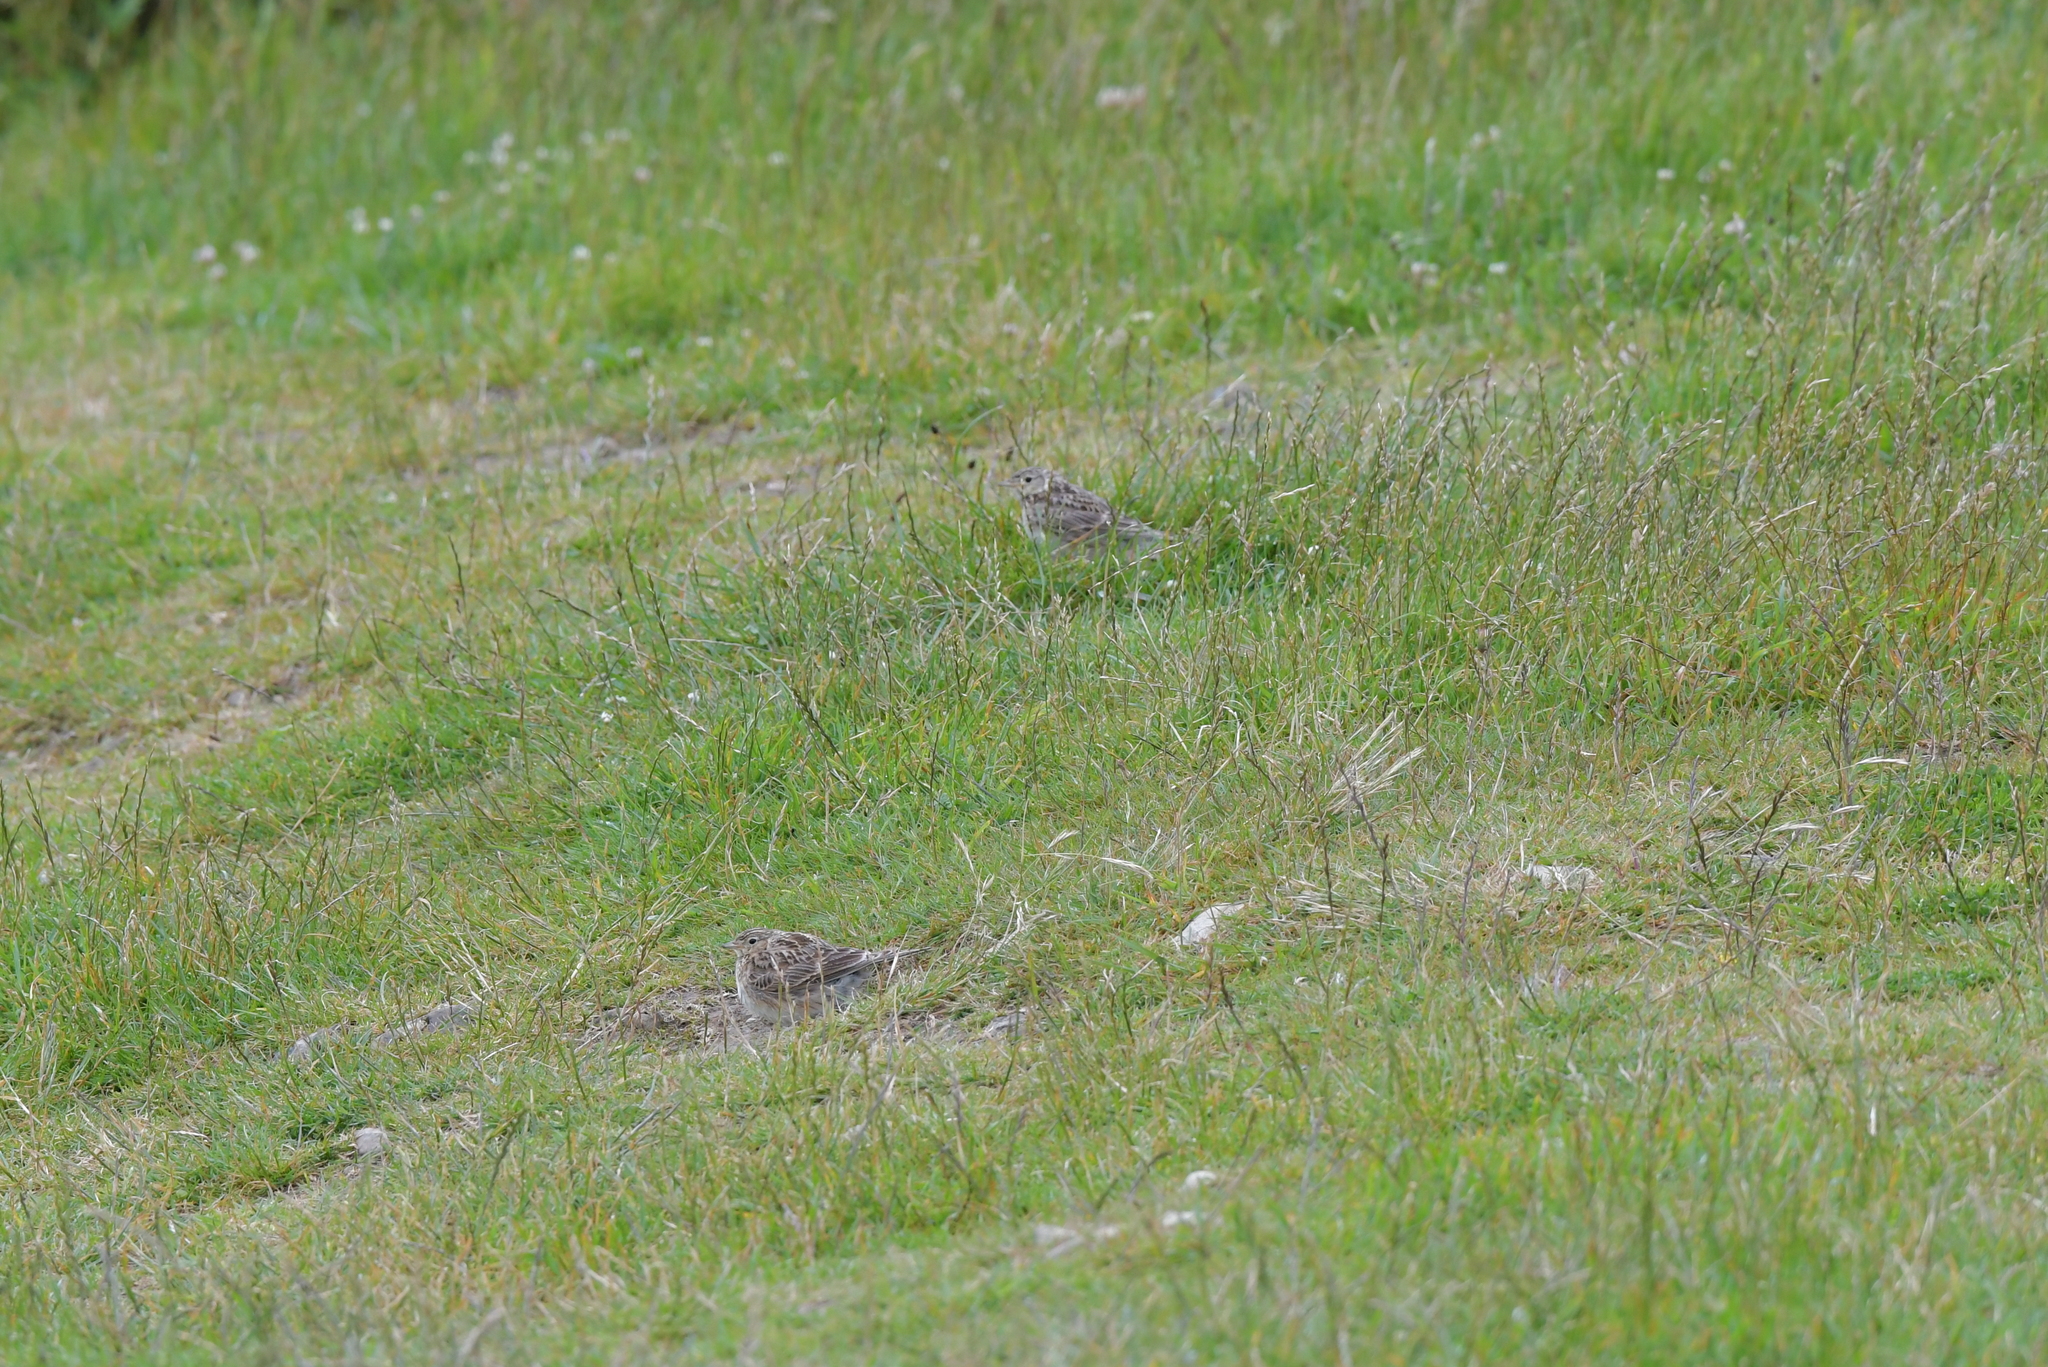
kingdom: Animalia
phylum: Chordata
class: Aves
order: Passeriformes
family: Alaudidae
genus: Alauda
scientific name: Alauda arvensis
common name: Eurasian skylark
